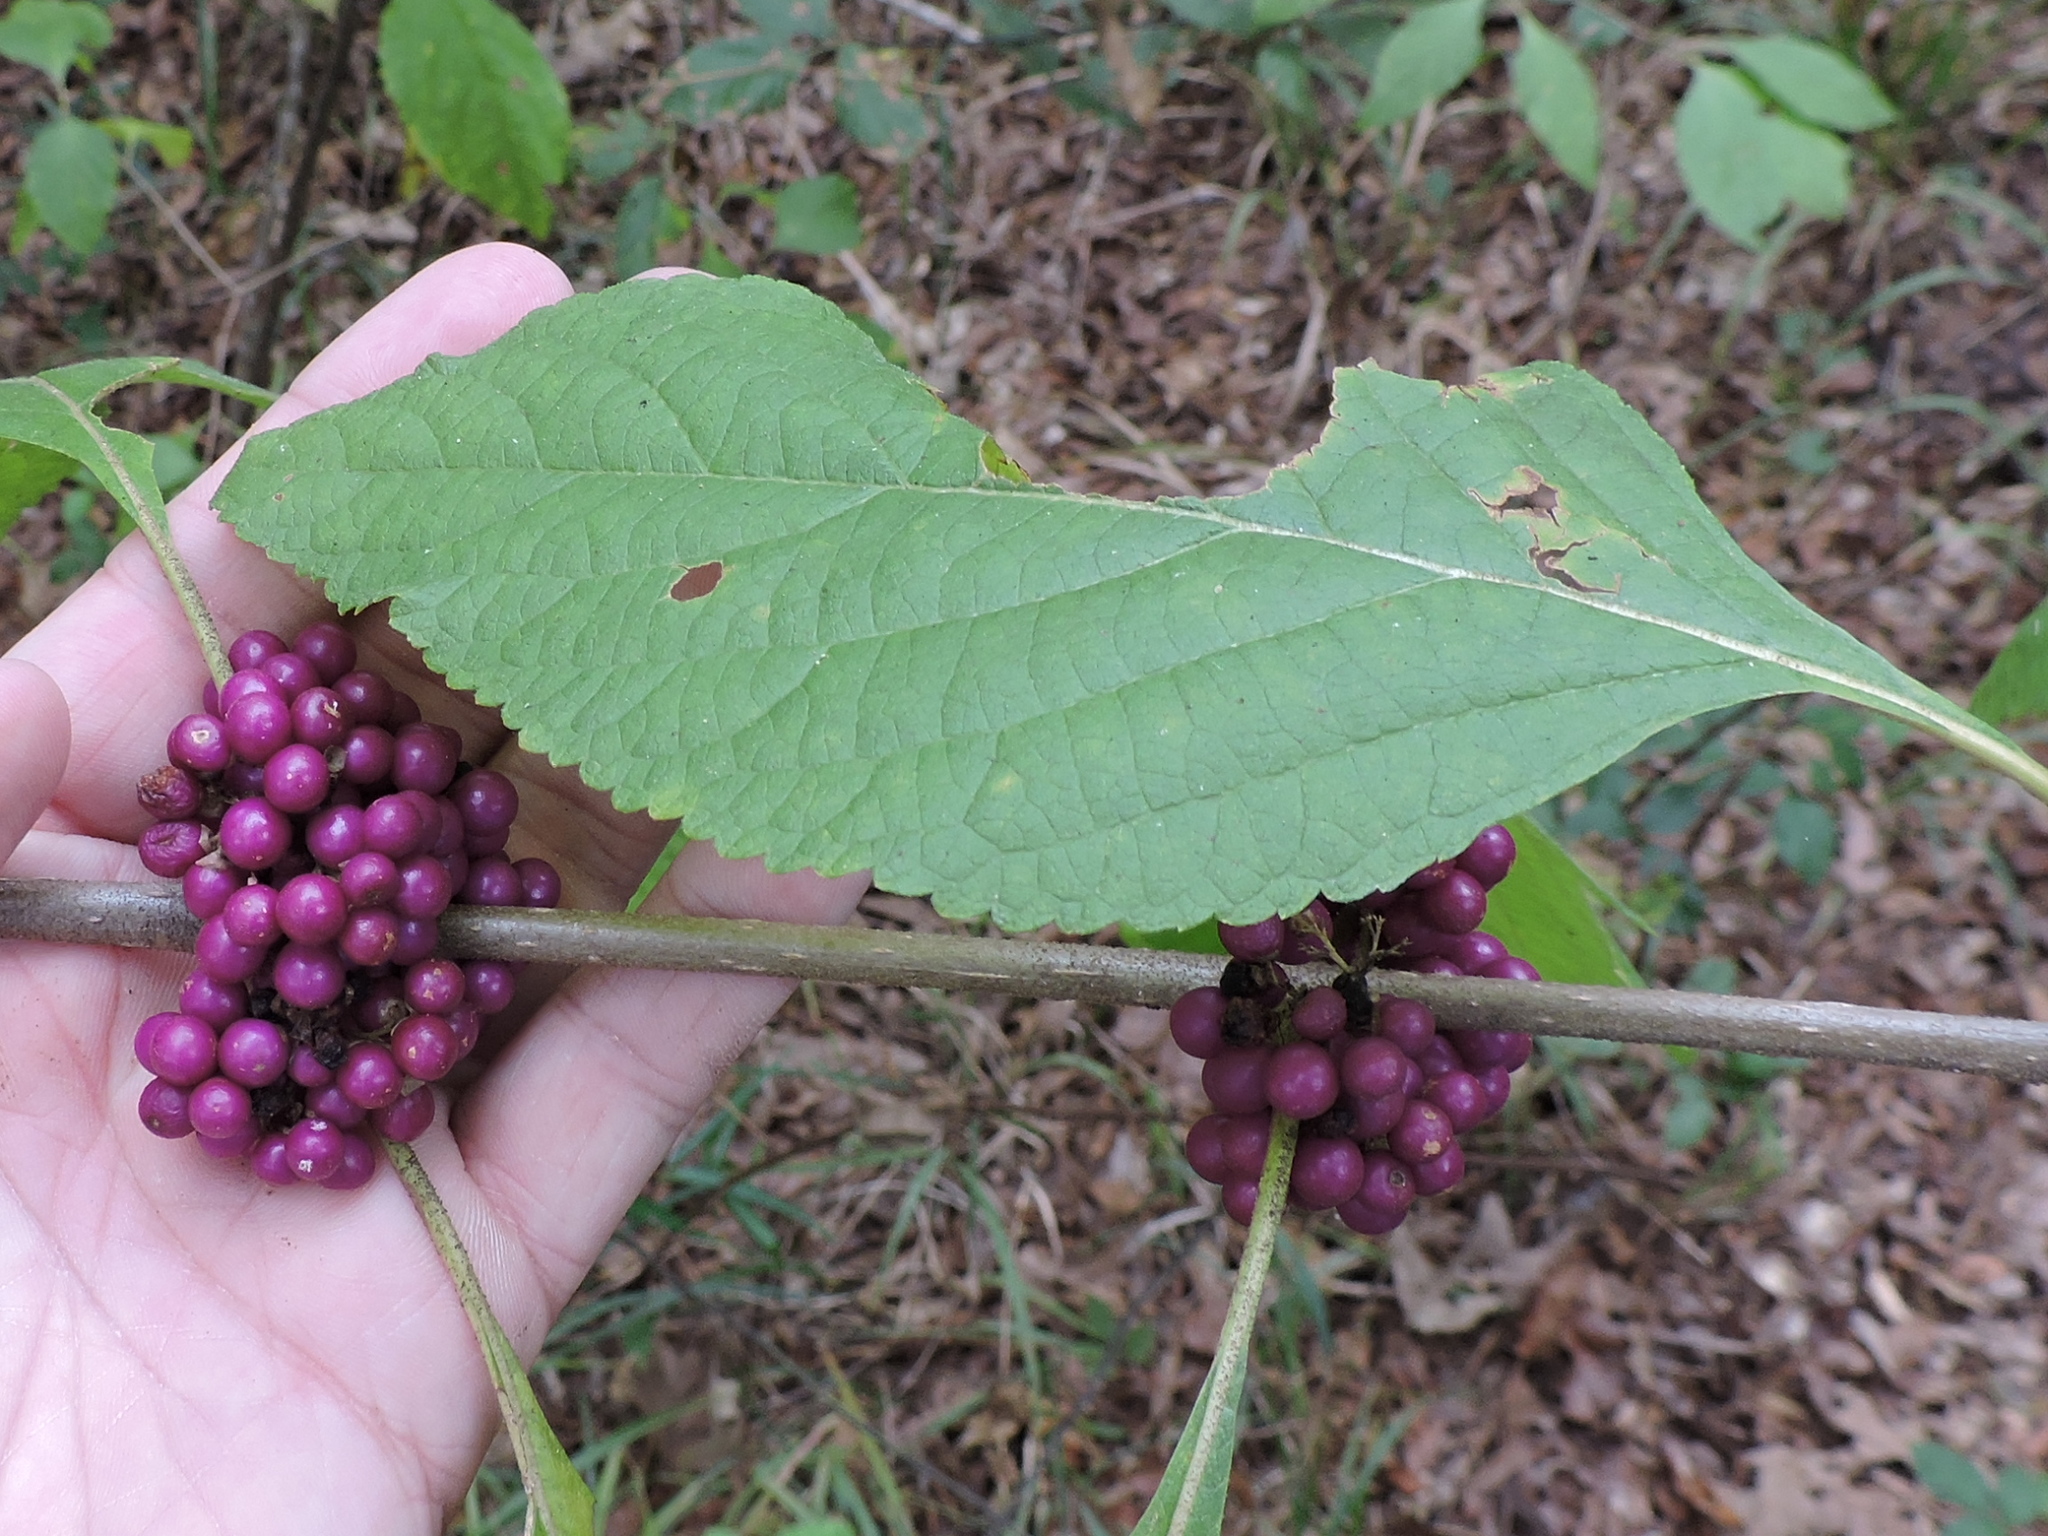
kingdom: Plantae
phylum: Tracheophyta
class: Magnoliopsida
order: Lamiales
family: Lamiaceae
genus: Callicarpa
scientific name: Callicarpa americana
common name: American beautyberry
